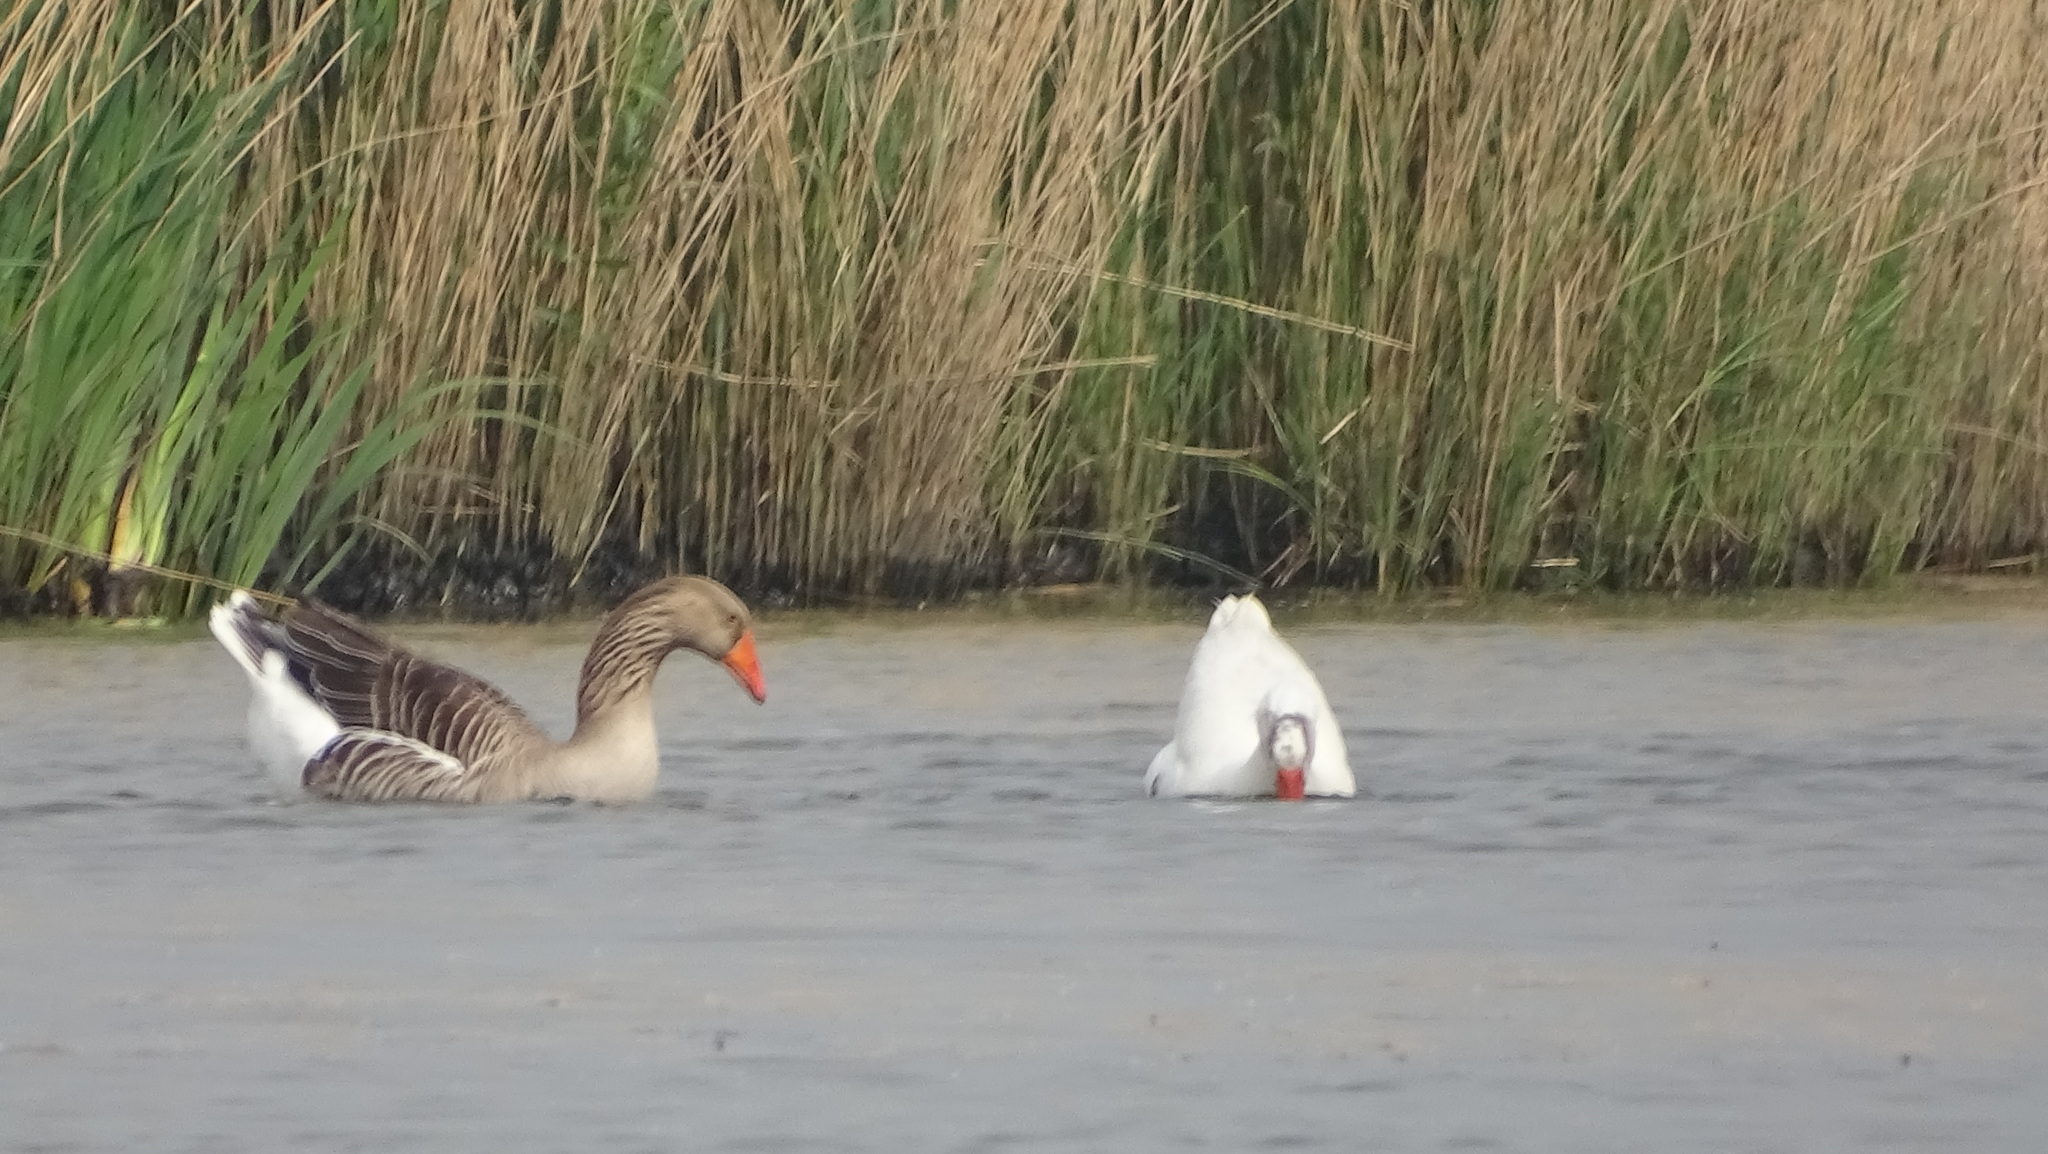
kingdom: Animalia
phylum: Chordata
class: Aves
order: Anseriformes
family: Anatidae
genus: Anser
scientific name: Anser anser
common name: Greylag goose
